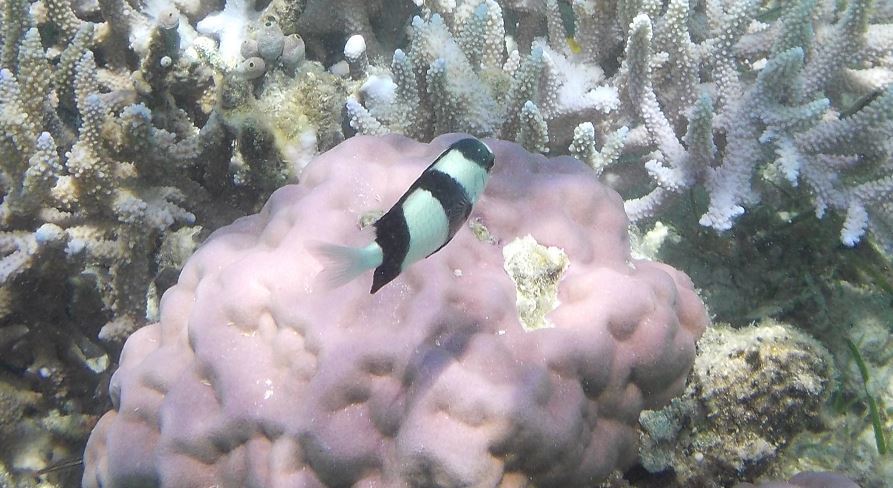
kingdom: Animalia
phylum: Chordata
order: Perciformes
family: Pomacentridae
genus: Dascyllus
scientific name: Dascyllus aruanus
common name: Humbug dascyllus
